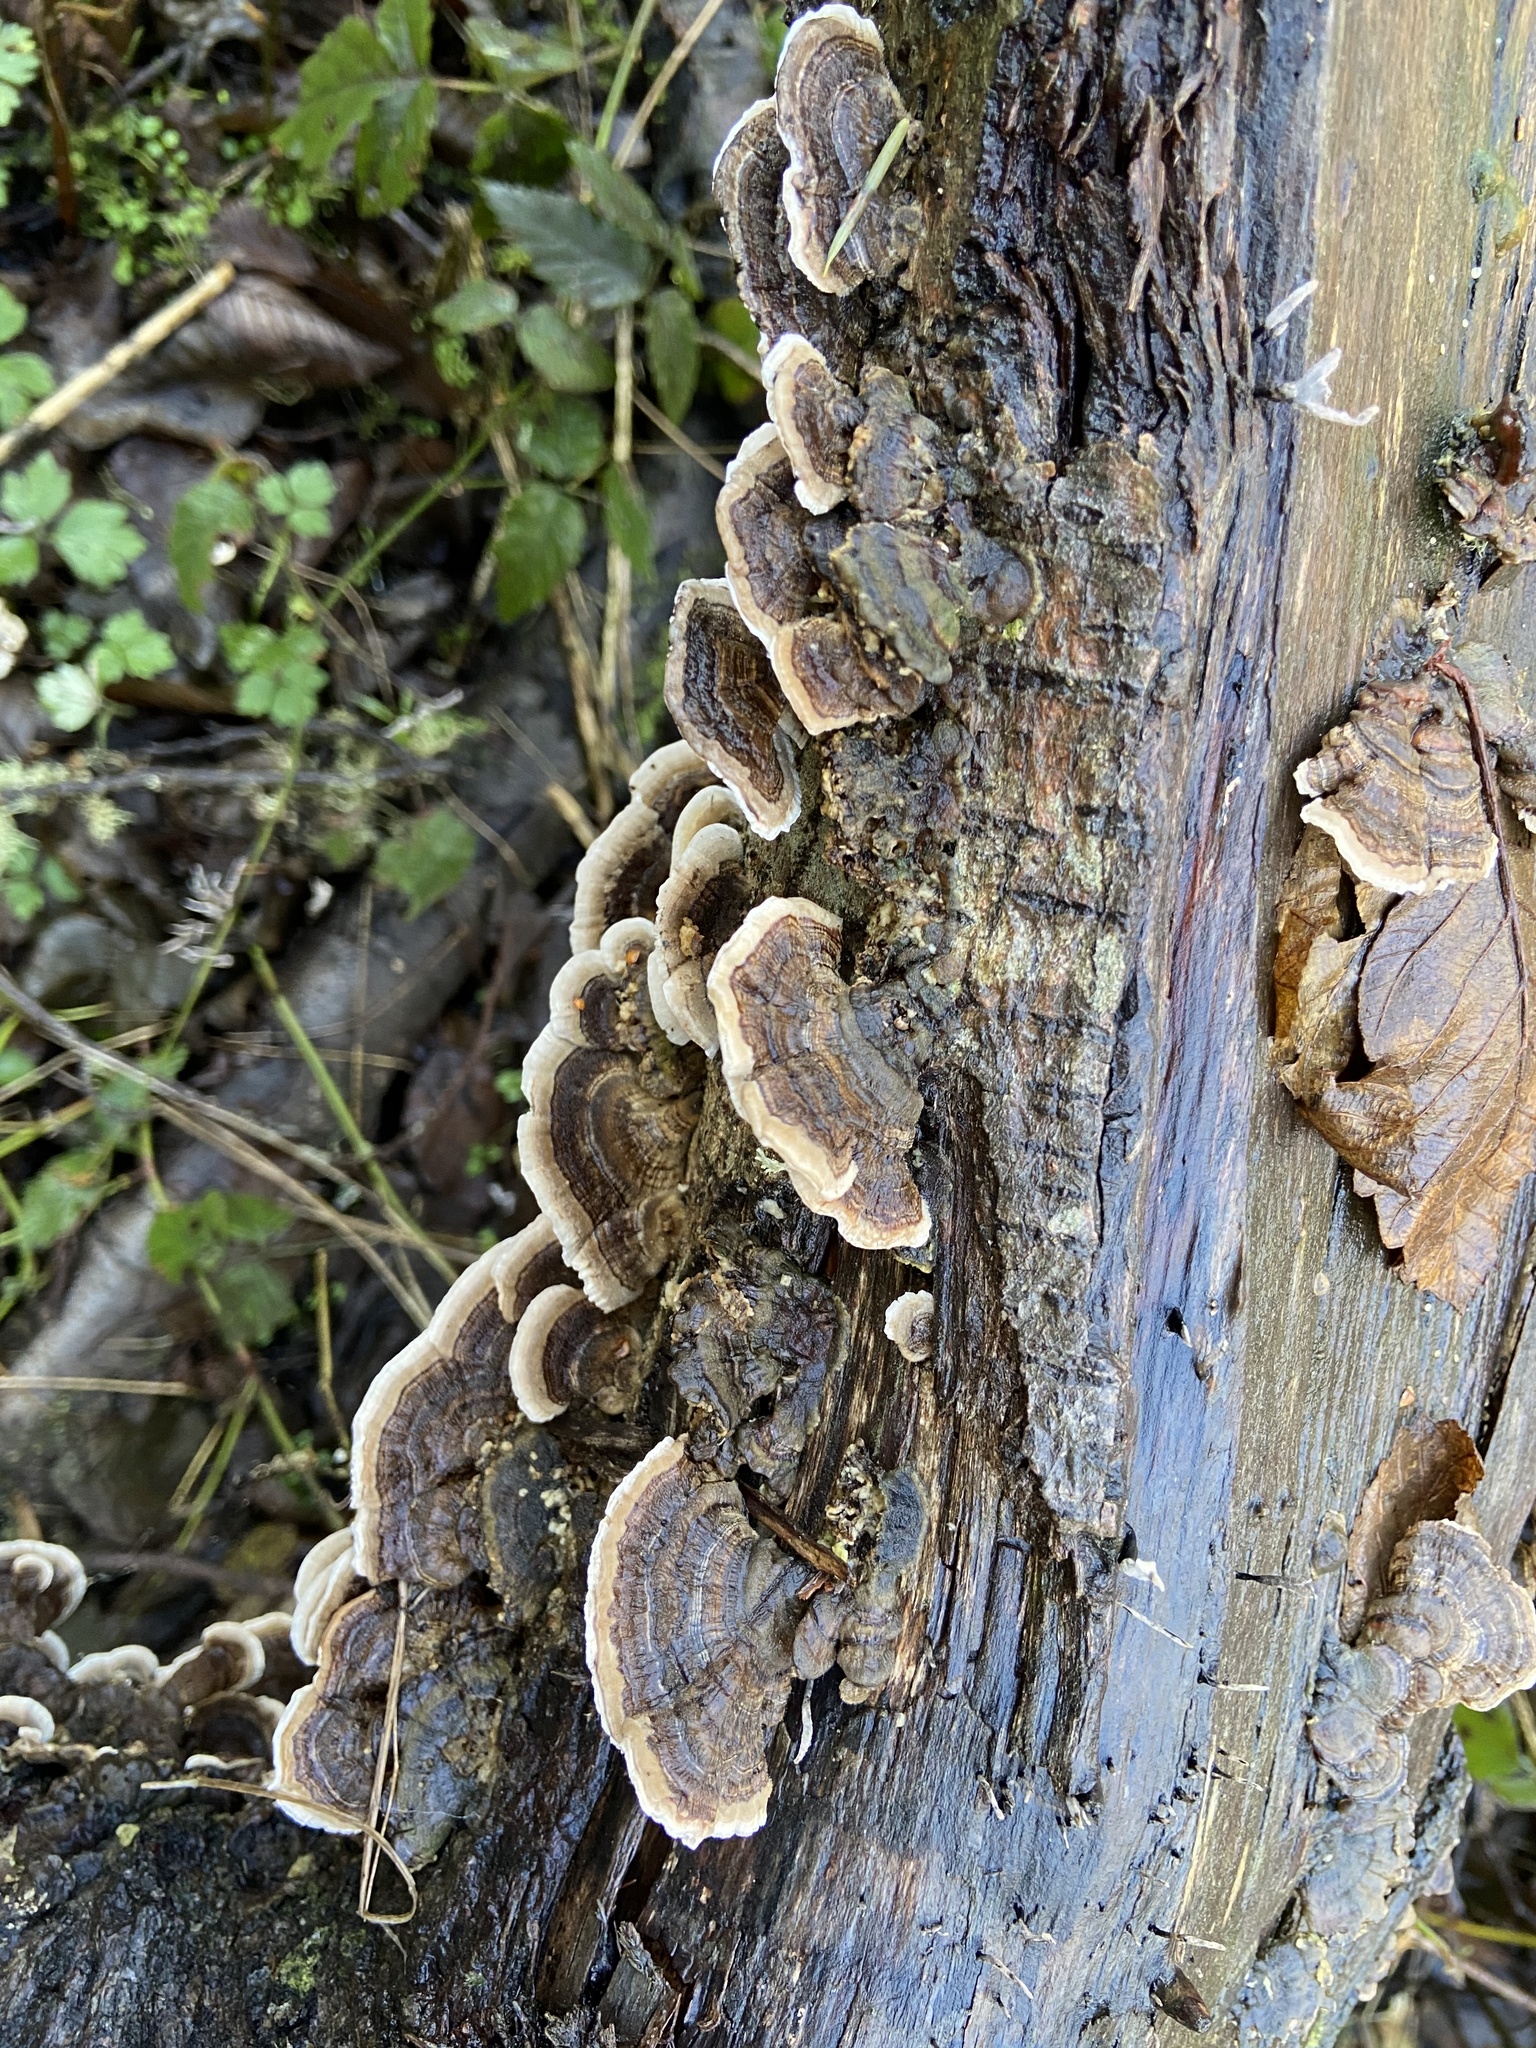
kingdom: Fungi
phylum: Basidiomycota
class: Agaricomycetes
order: Polyporales
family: Polyporaceae
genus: Trametes
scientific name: Trametes versicolor
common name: Turkeytail
